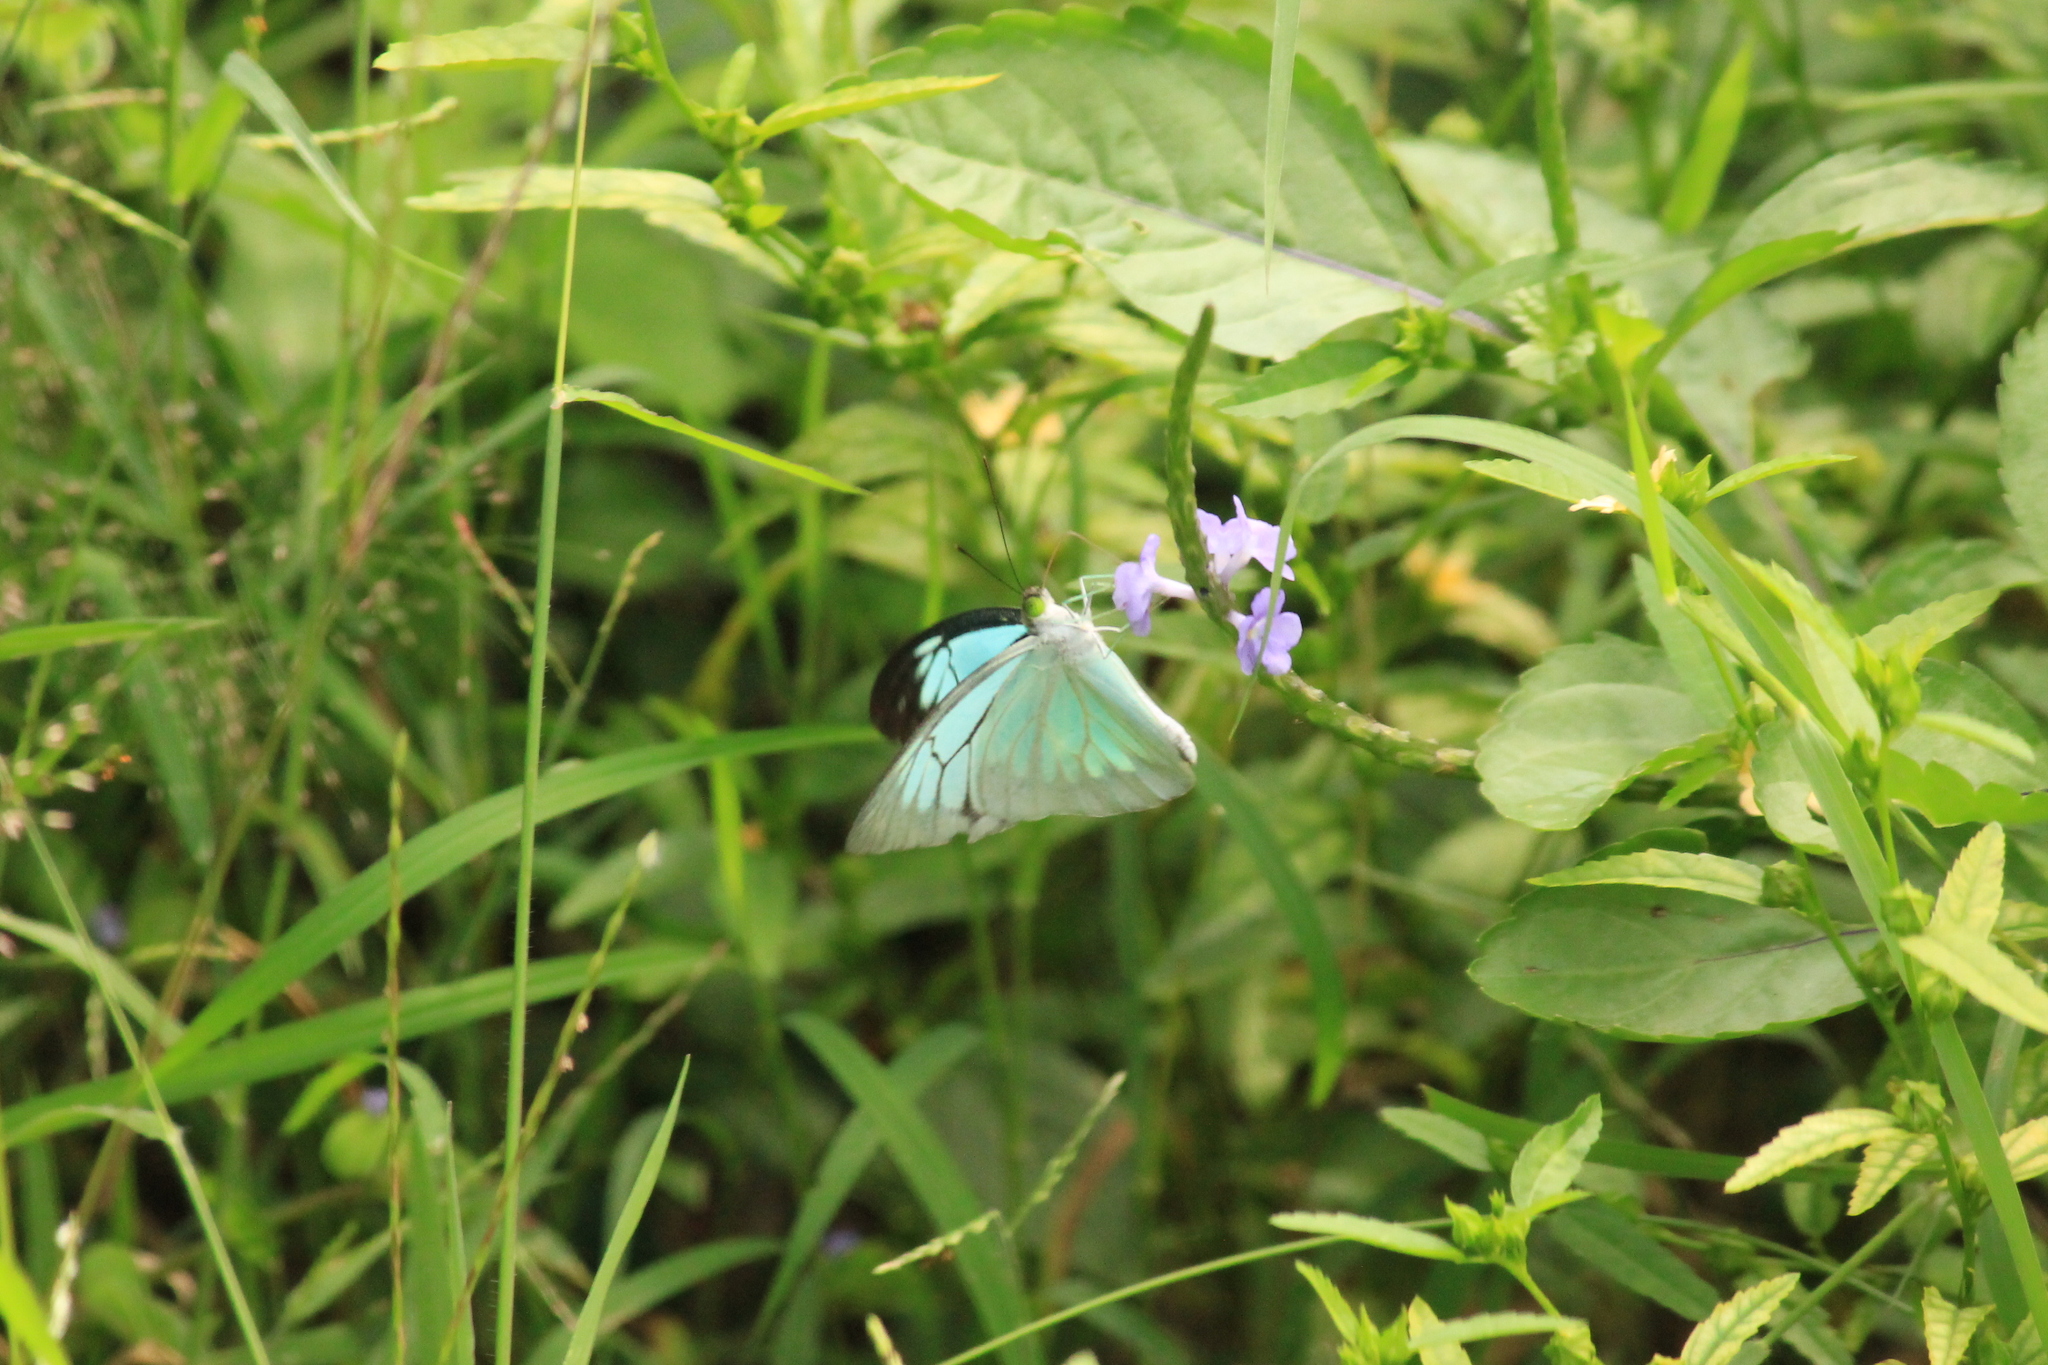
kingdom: Animalia
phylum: Arthropoda
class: Insecta
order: Lepidoptera
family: Pieridae
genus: Pareronia
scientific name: Pareronia hippia
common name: Indian wanderer
